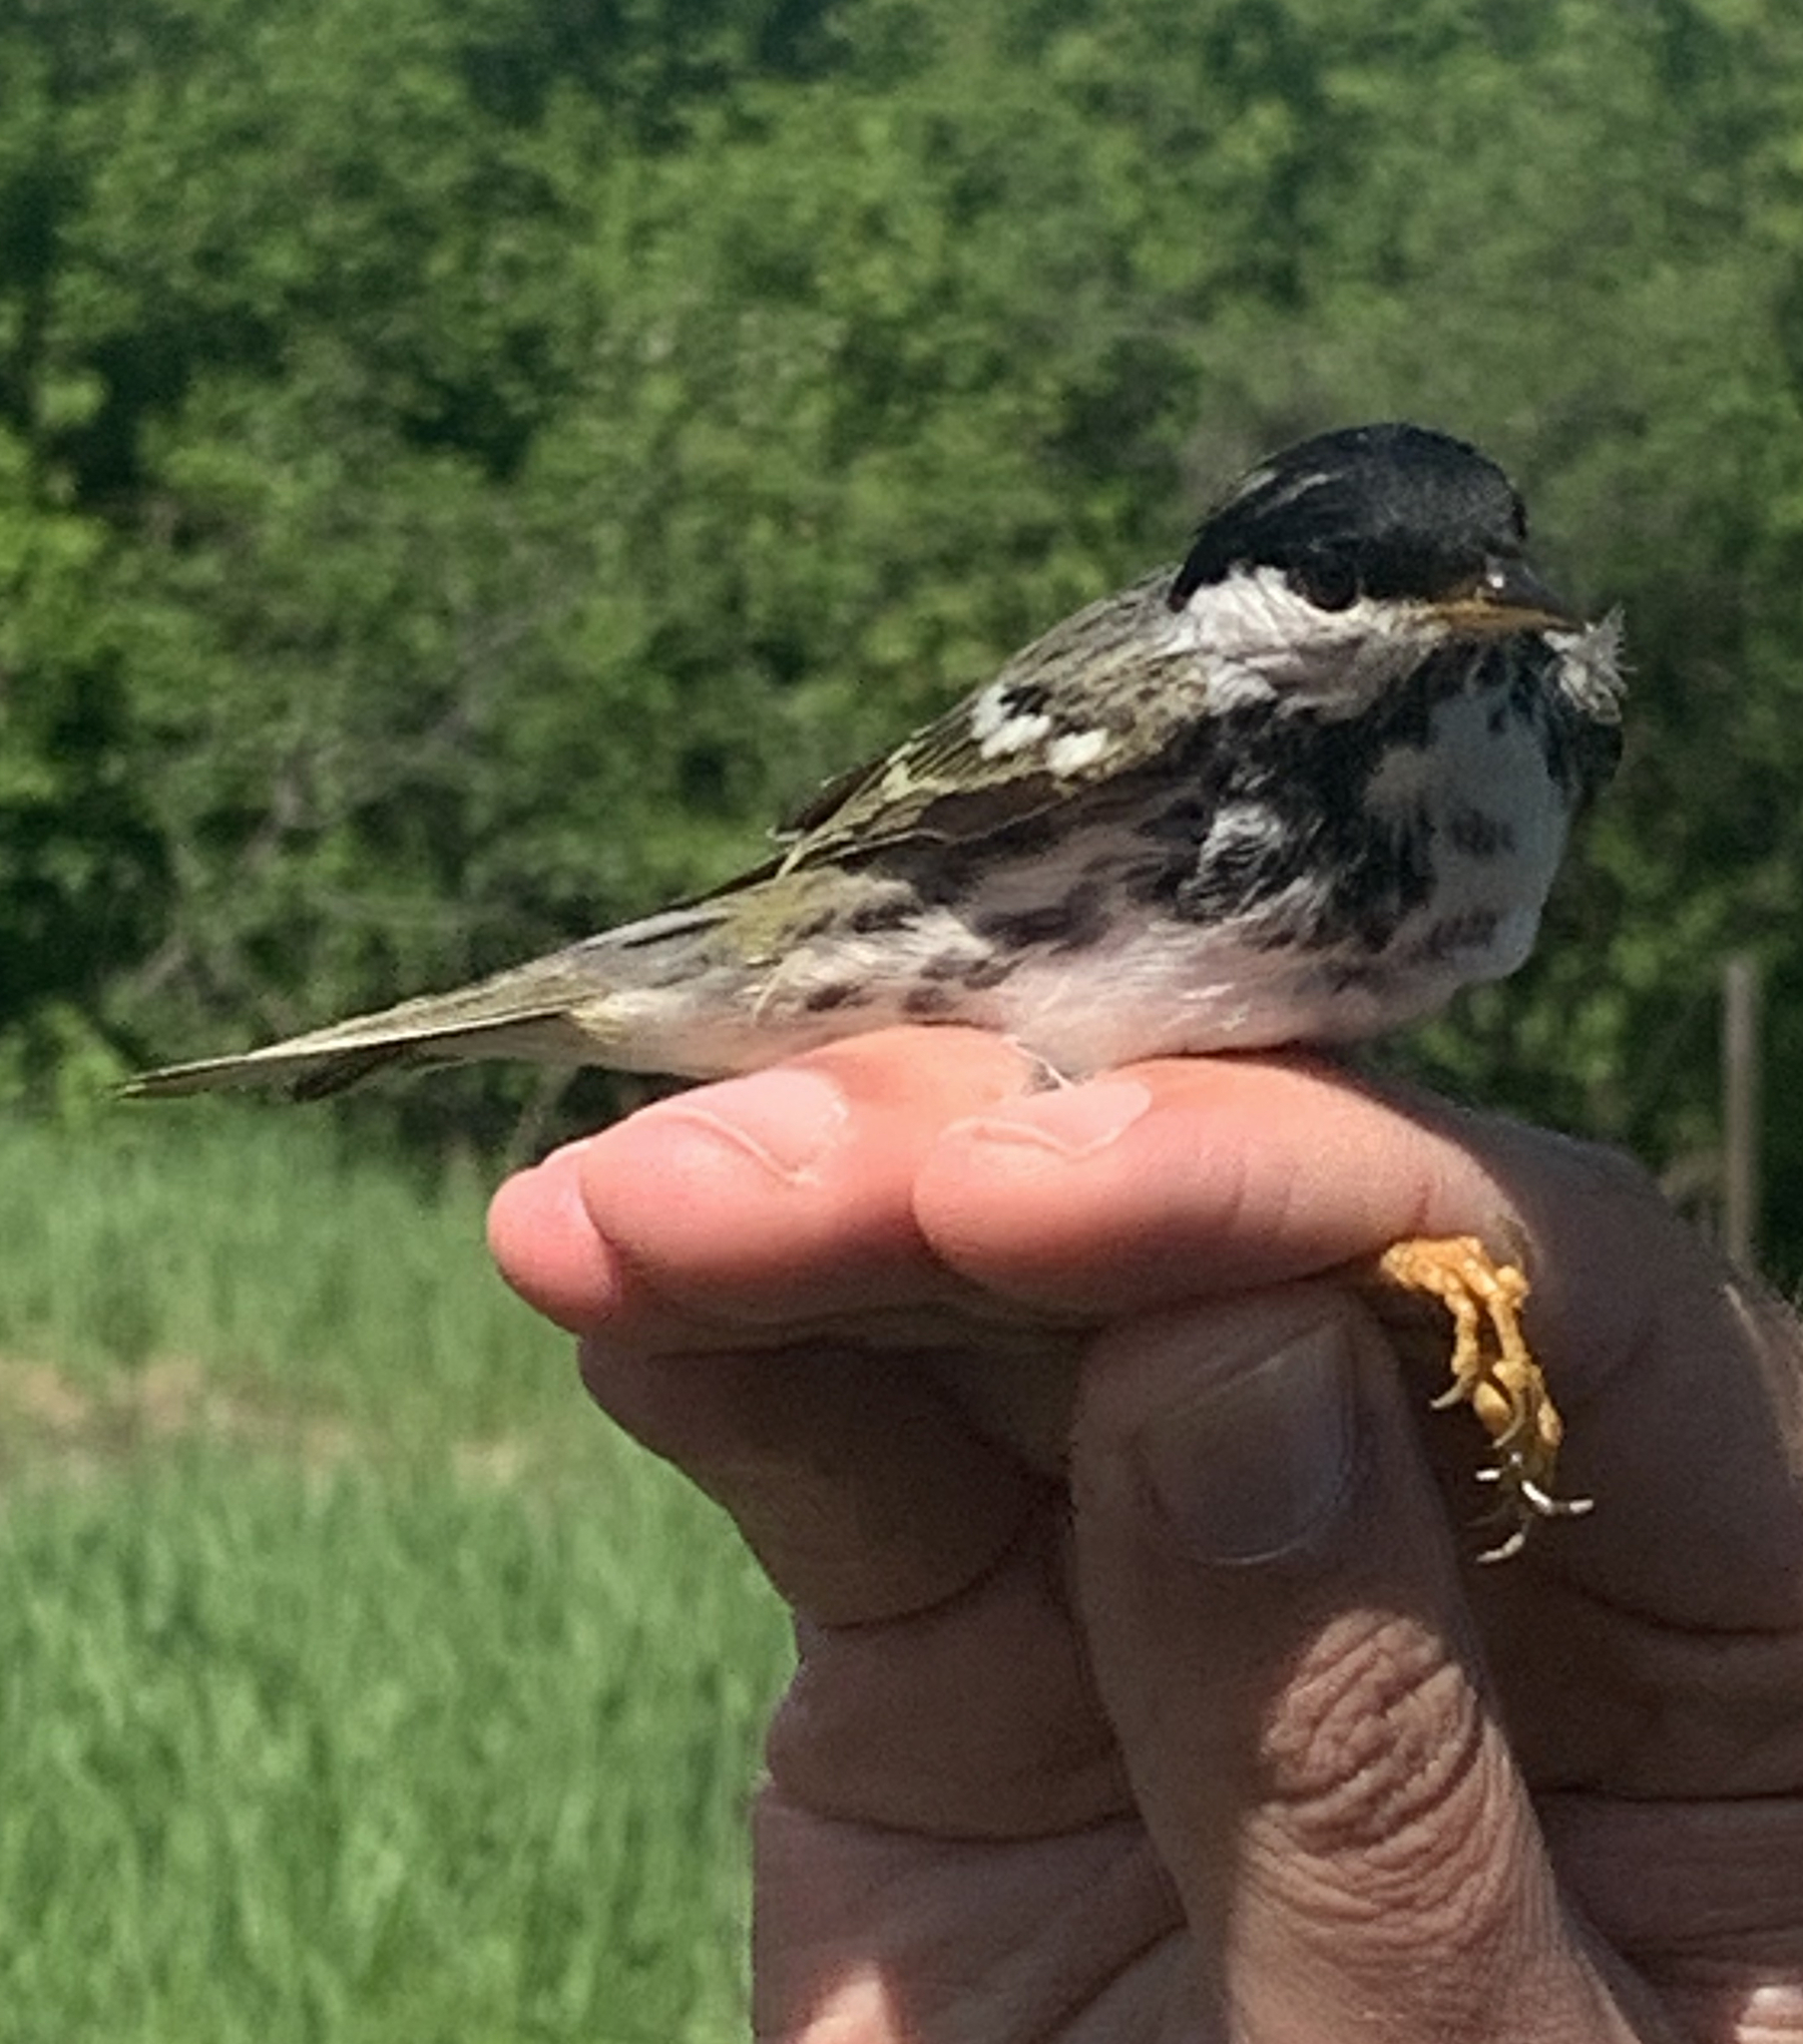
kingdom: Animalia
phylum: Chordata
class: Aves
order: Passeriformes
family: Parulidae
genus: Setophaga
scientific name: Setophaga striata
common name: Blackpoll warbler
